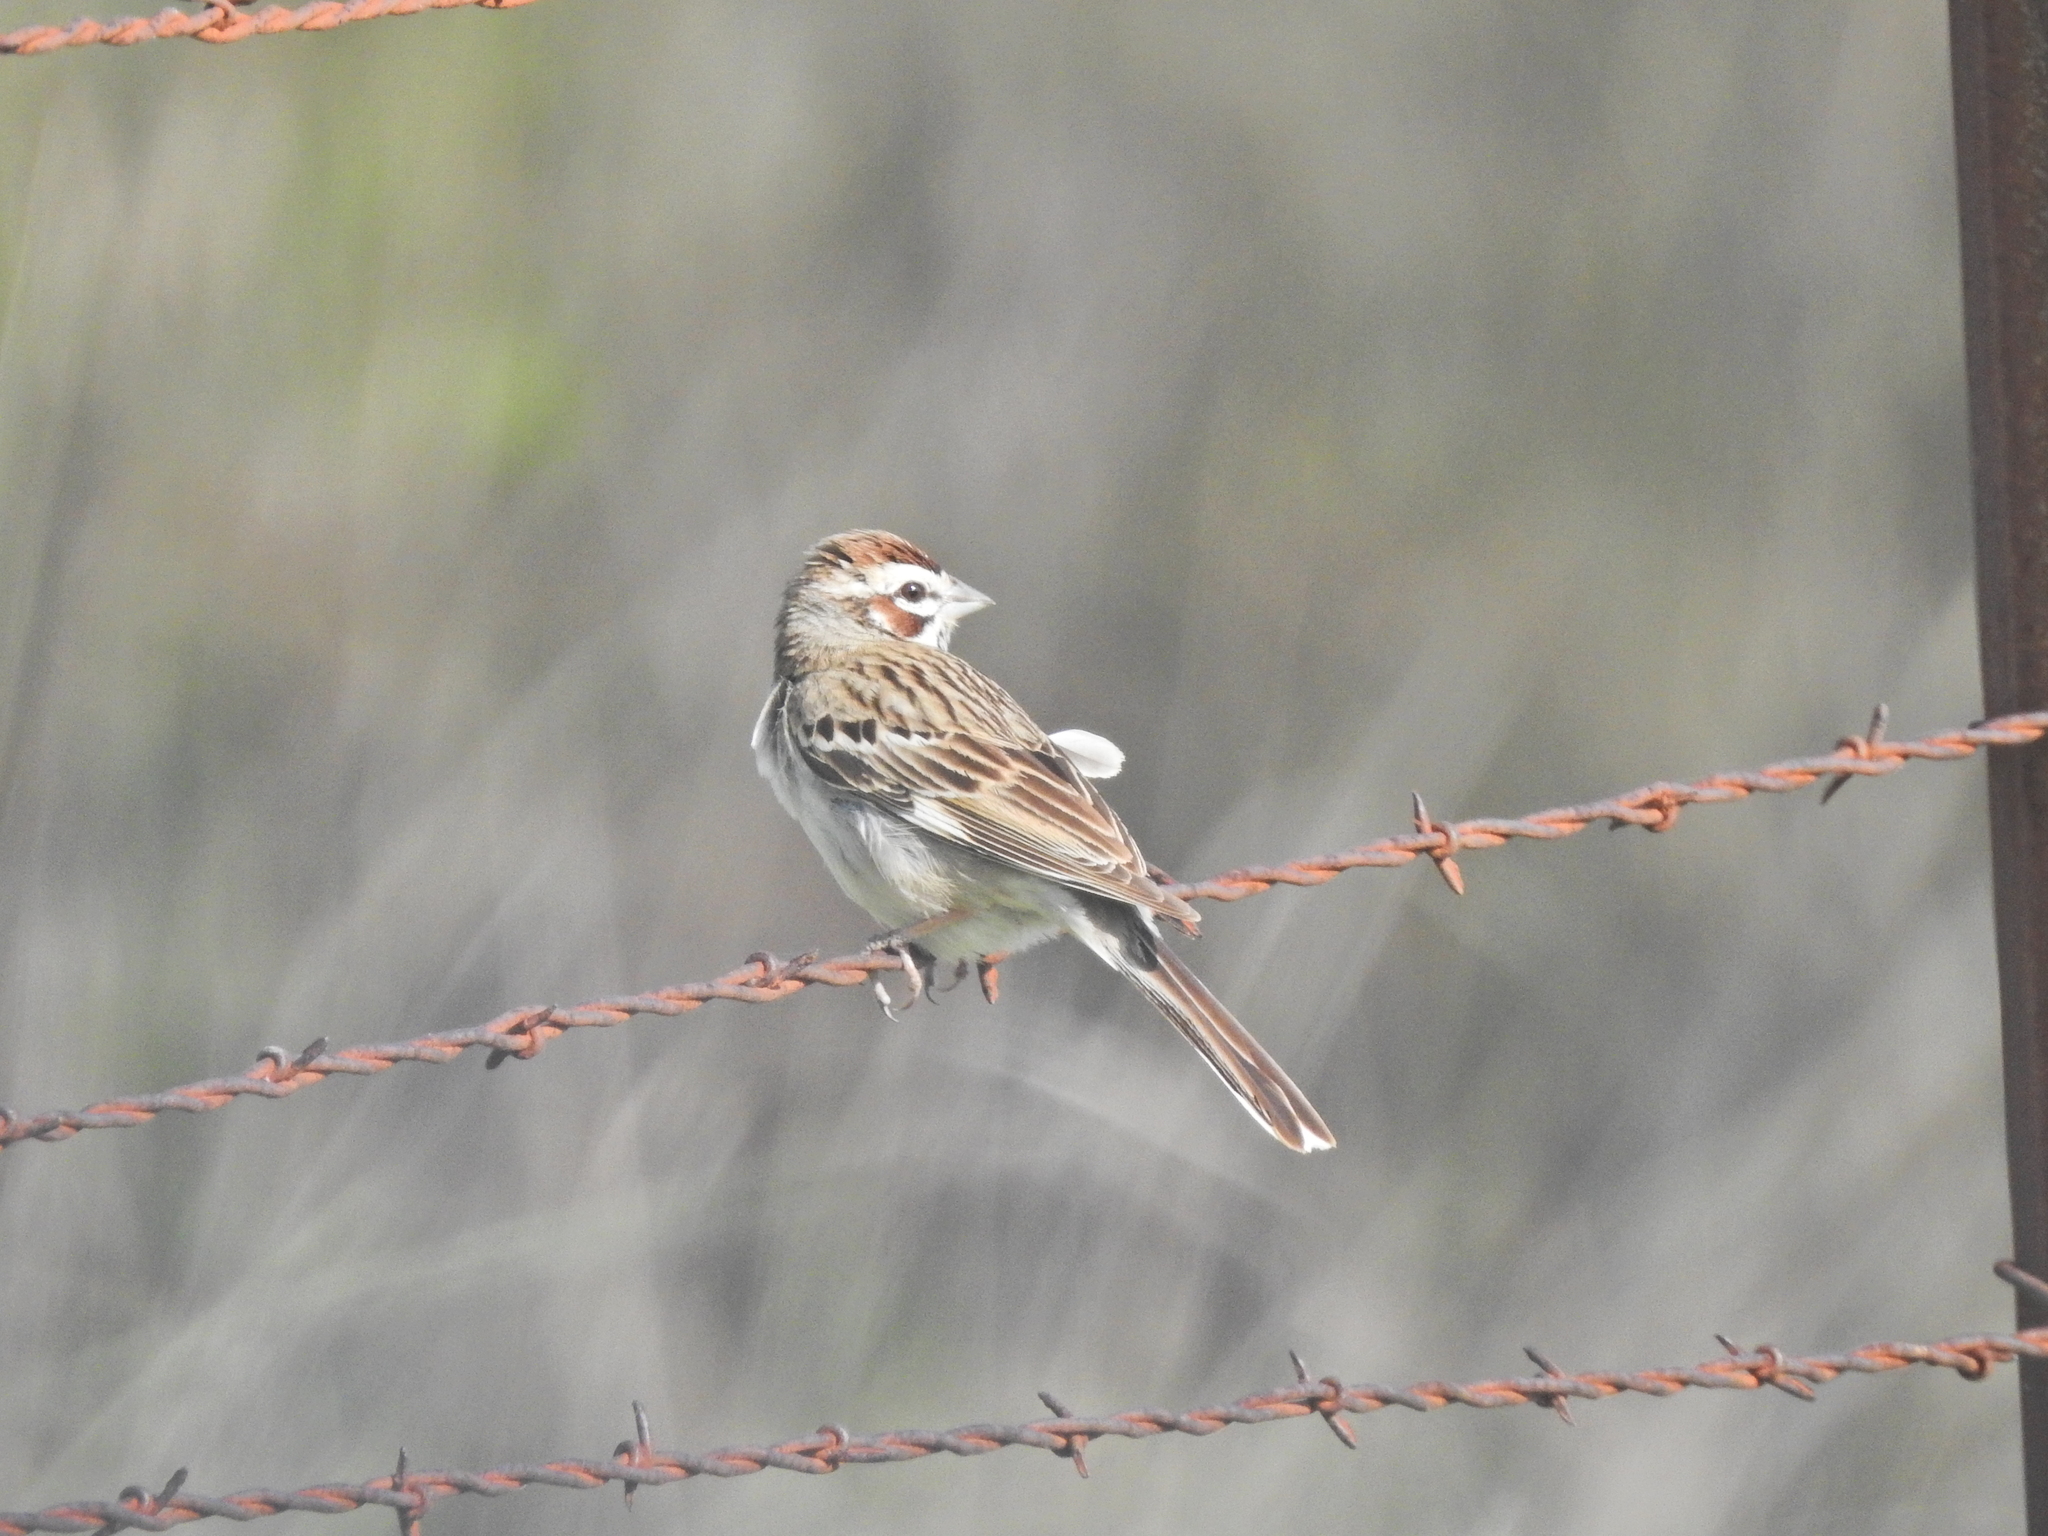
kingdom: Animalia
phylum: Chordata
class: Aves
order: Passeriformes
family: Passerellidae
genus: Chondestes
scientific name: Chondestes grammacus
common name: Lark sparrow
